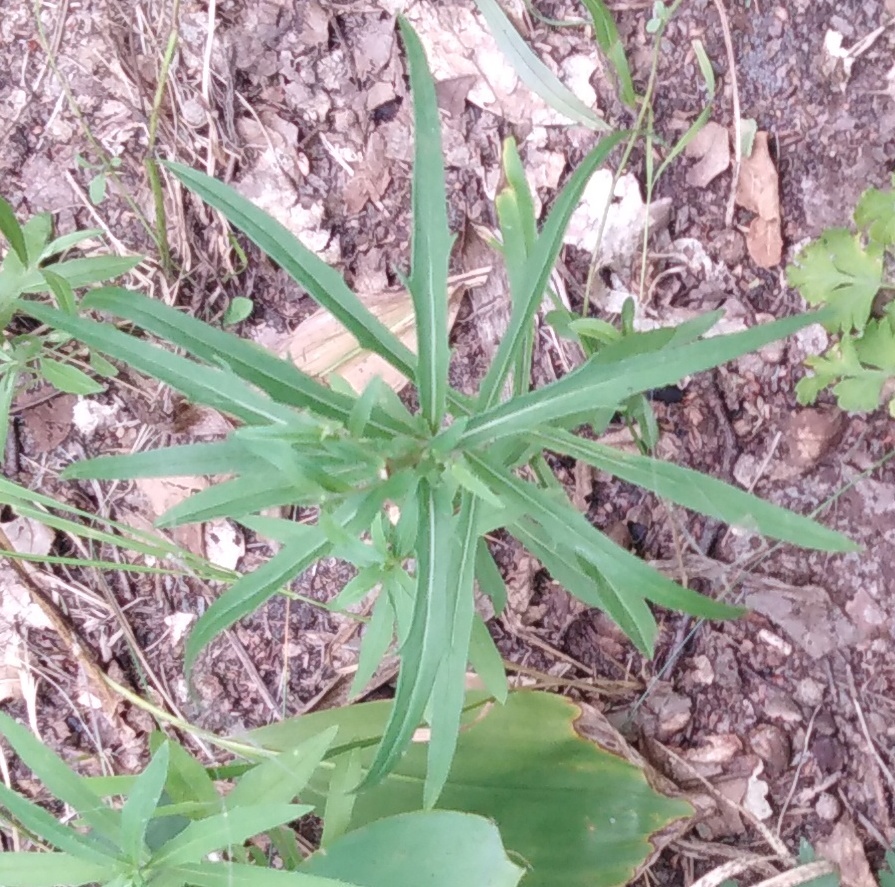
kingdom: Plantae
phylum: Tracheophyta
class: Magnoliopsida
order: Asterales
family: Asteraceae
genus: Hieracium
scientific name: Hieracium umbellatum
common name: Northern hawkweed
